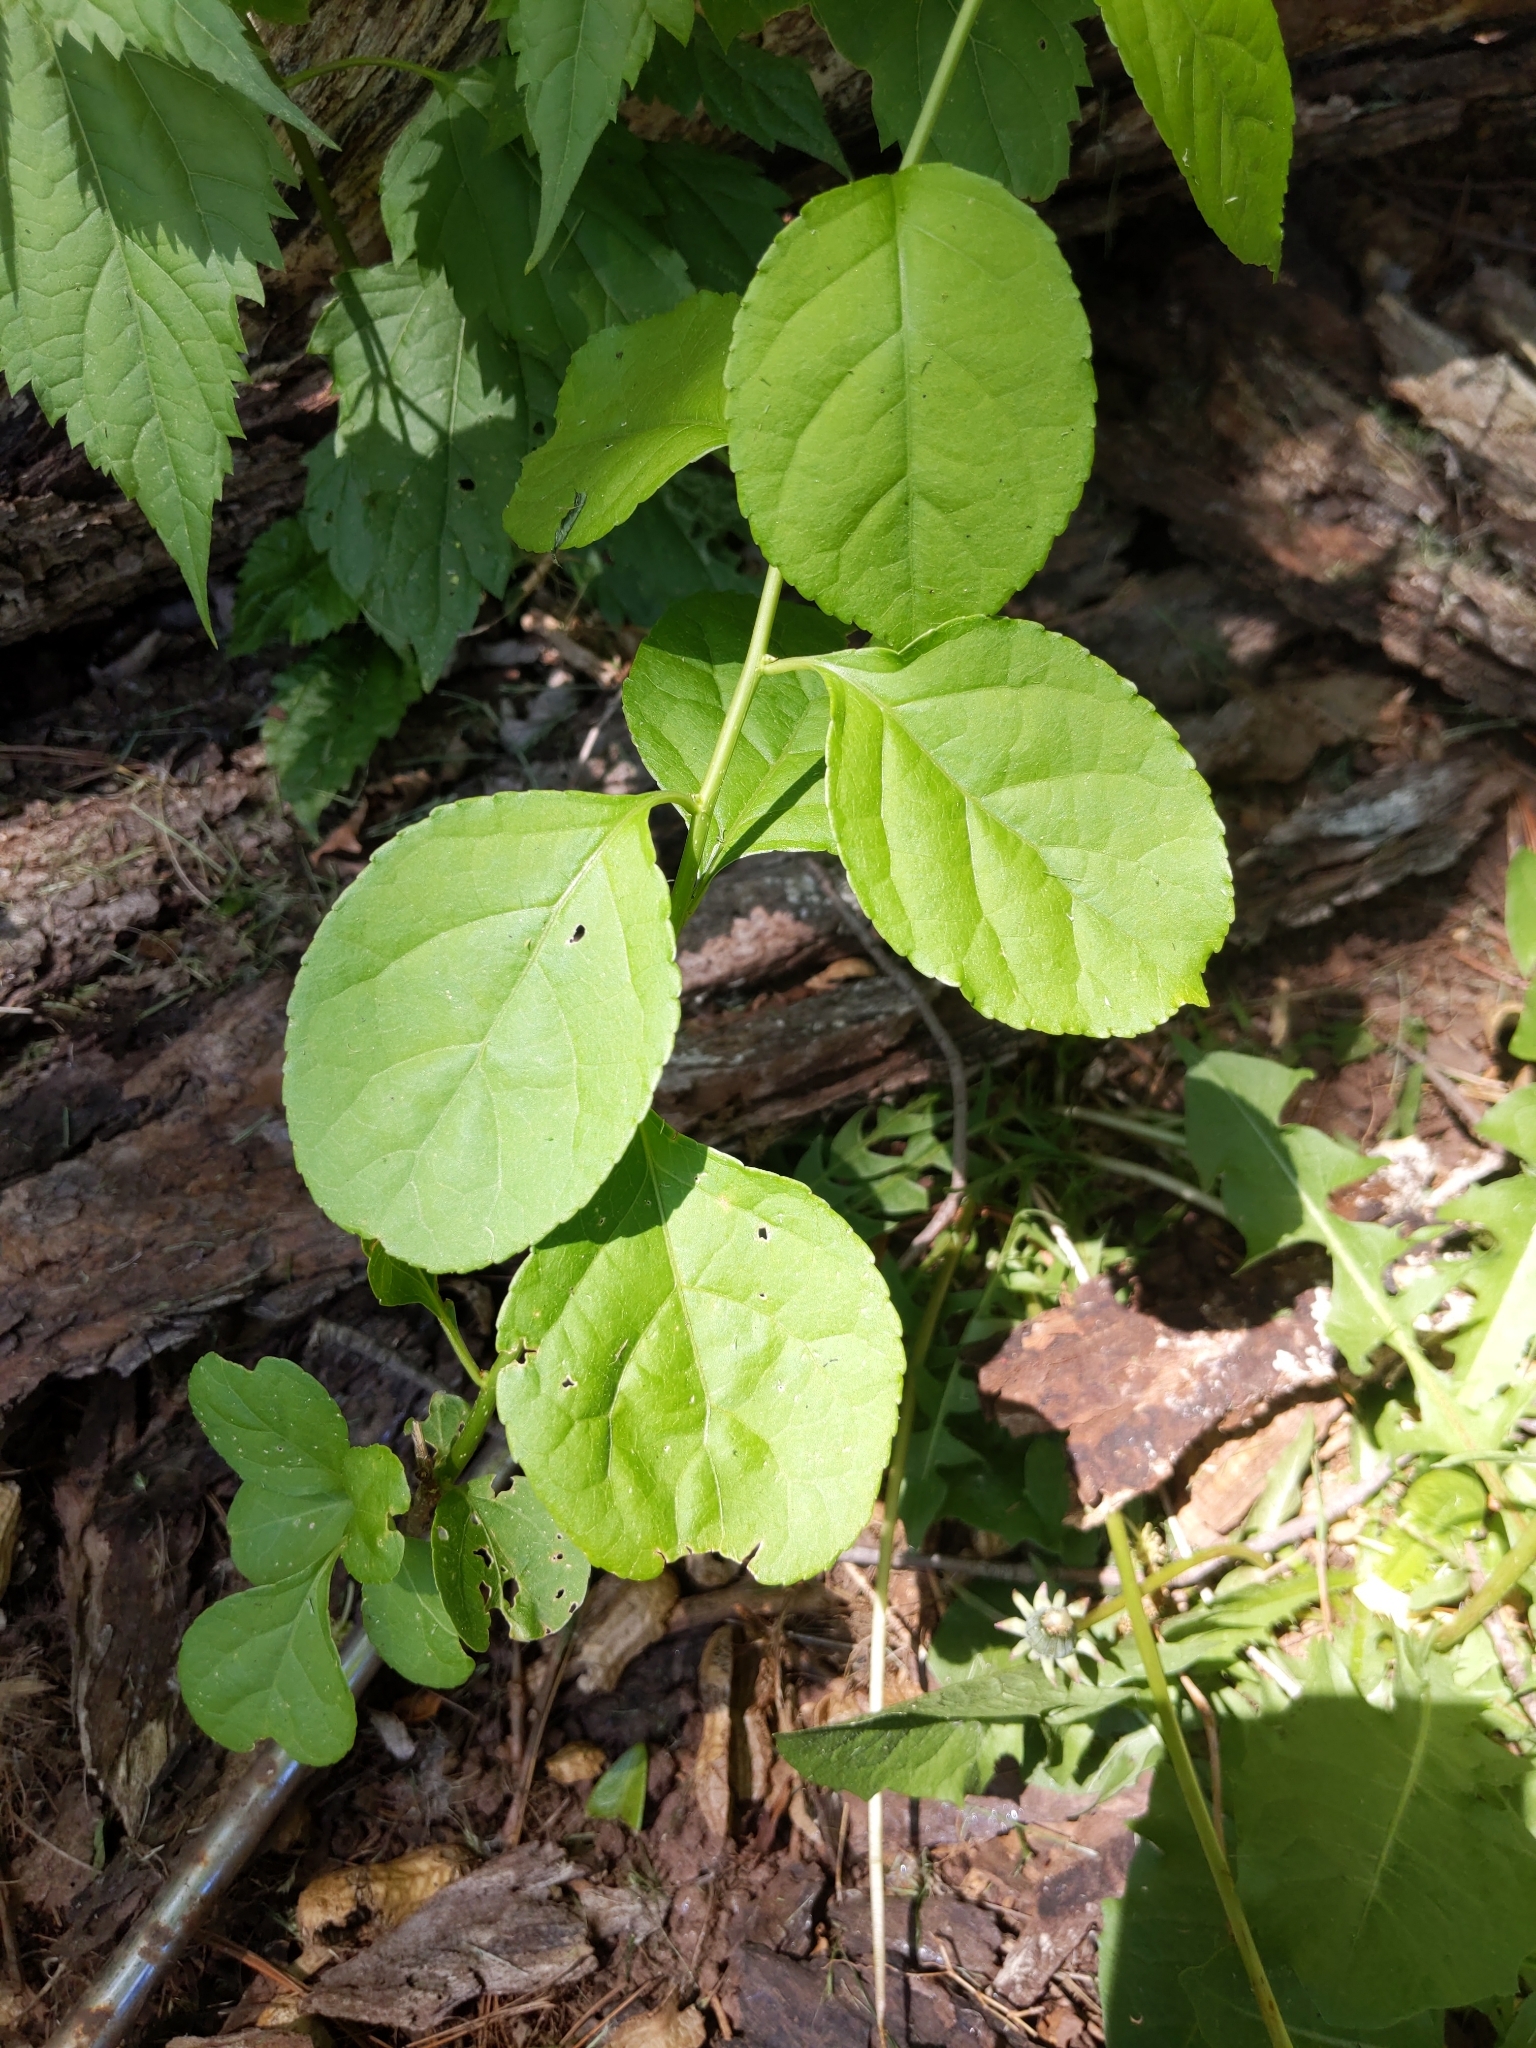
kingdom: Plantae
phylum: Tracheophyta
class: Magnoliopsida
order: Celastrales
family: Celastraceae
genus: Celastrus
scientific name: Celastrus orbiculatus
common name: Oriental bittersweet
